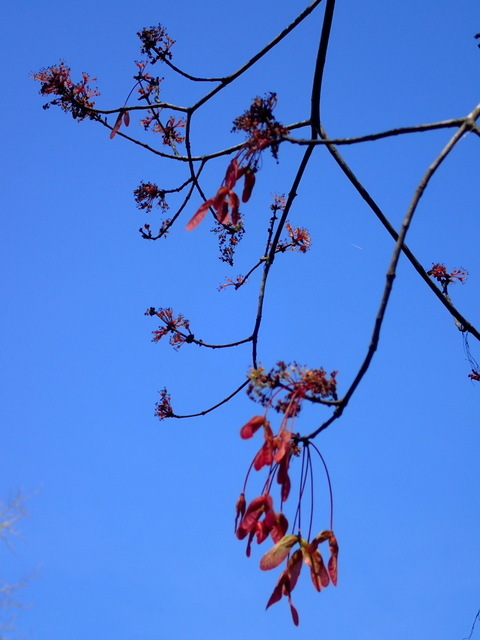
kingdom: Plantae
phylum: Tracheophyta
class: Magnoliopsida
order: Sapindales
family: Sapindaceae
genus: Acer
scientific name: Acer rubrum
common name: Red maple
